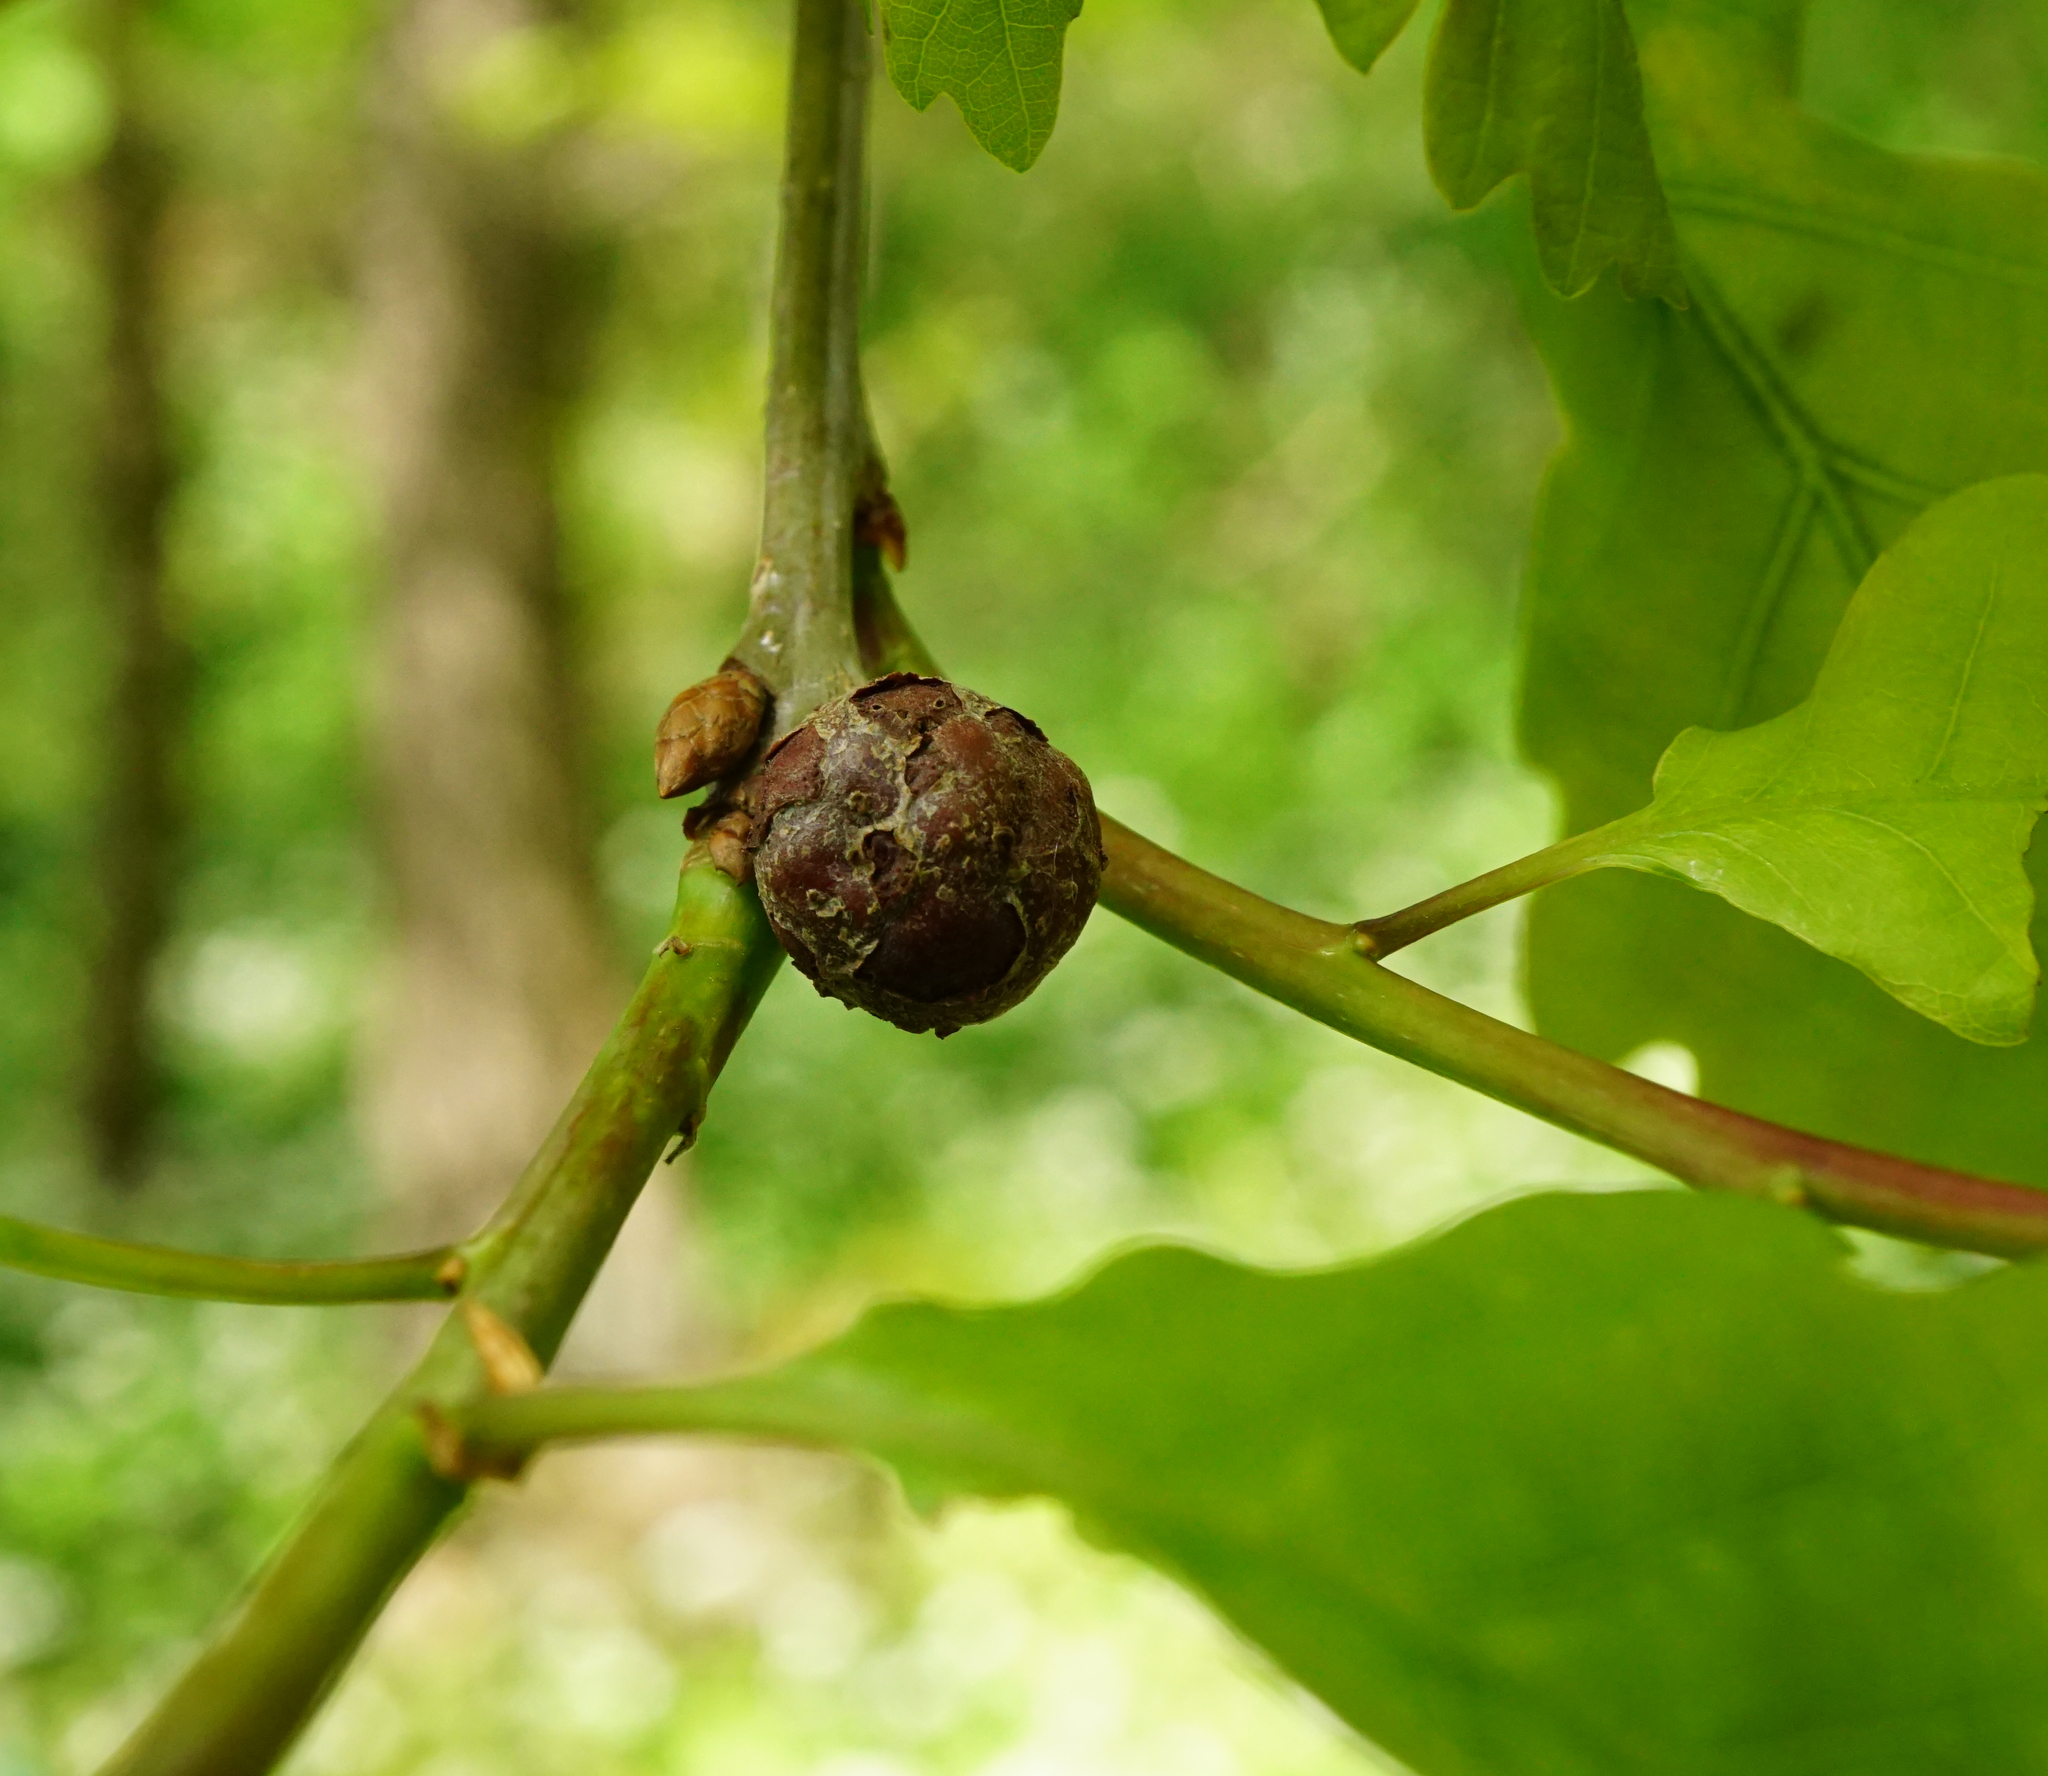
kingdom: Animalia
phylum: Arthropoda
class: Insecta
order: Hymenoptera
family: Cynipidae
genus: Andricus
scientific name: Andricus lignicolus
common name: Cola-nut gall
